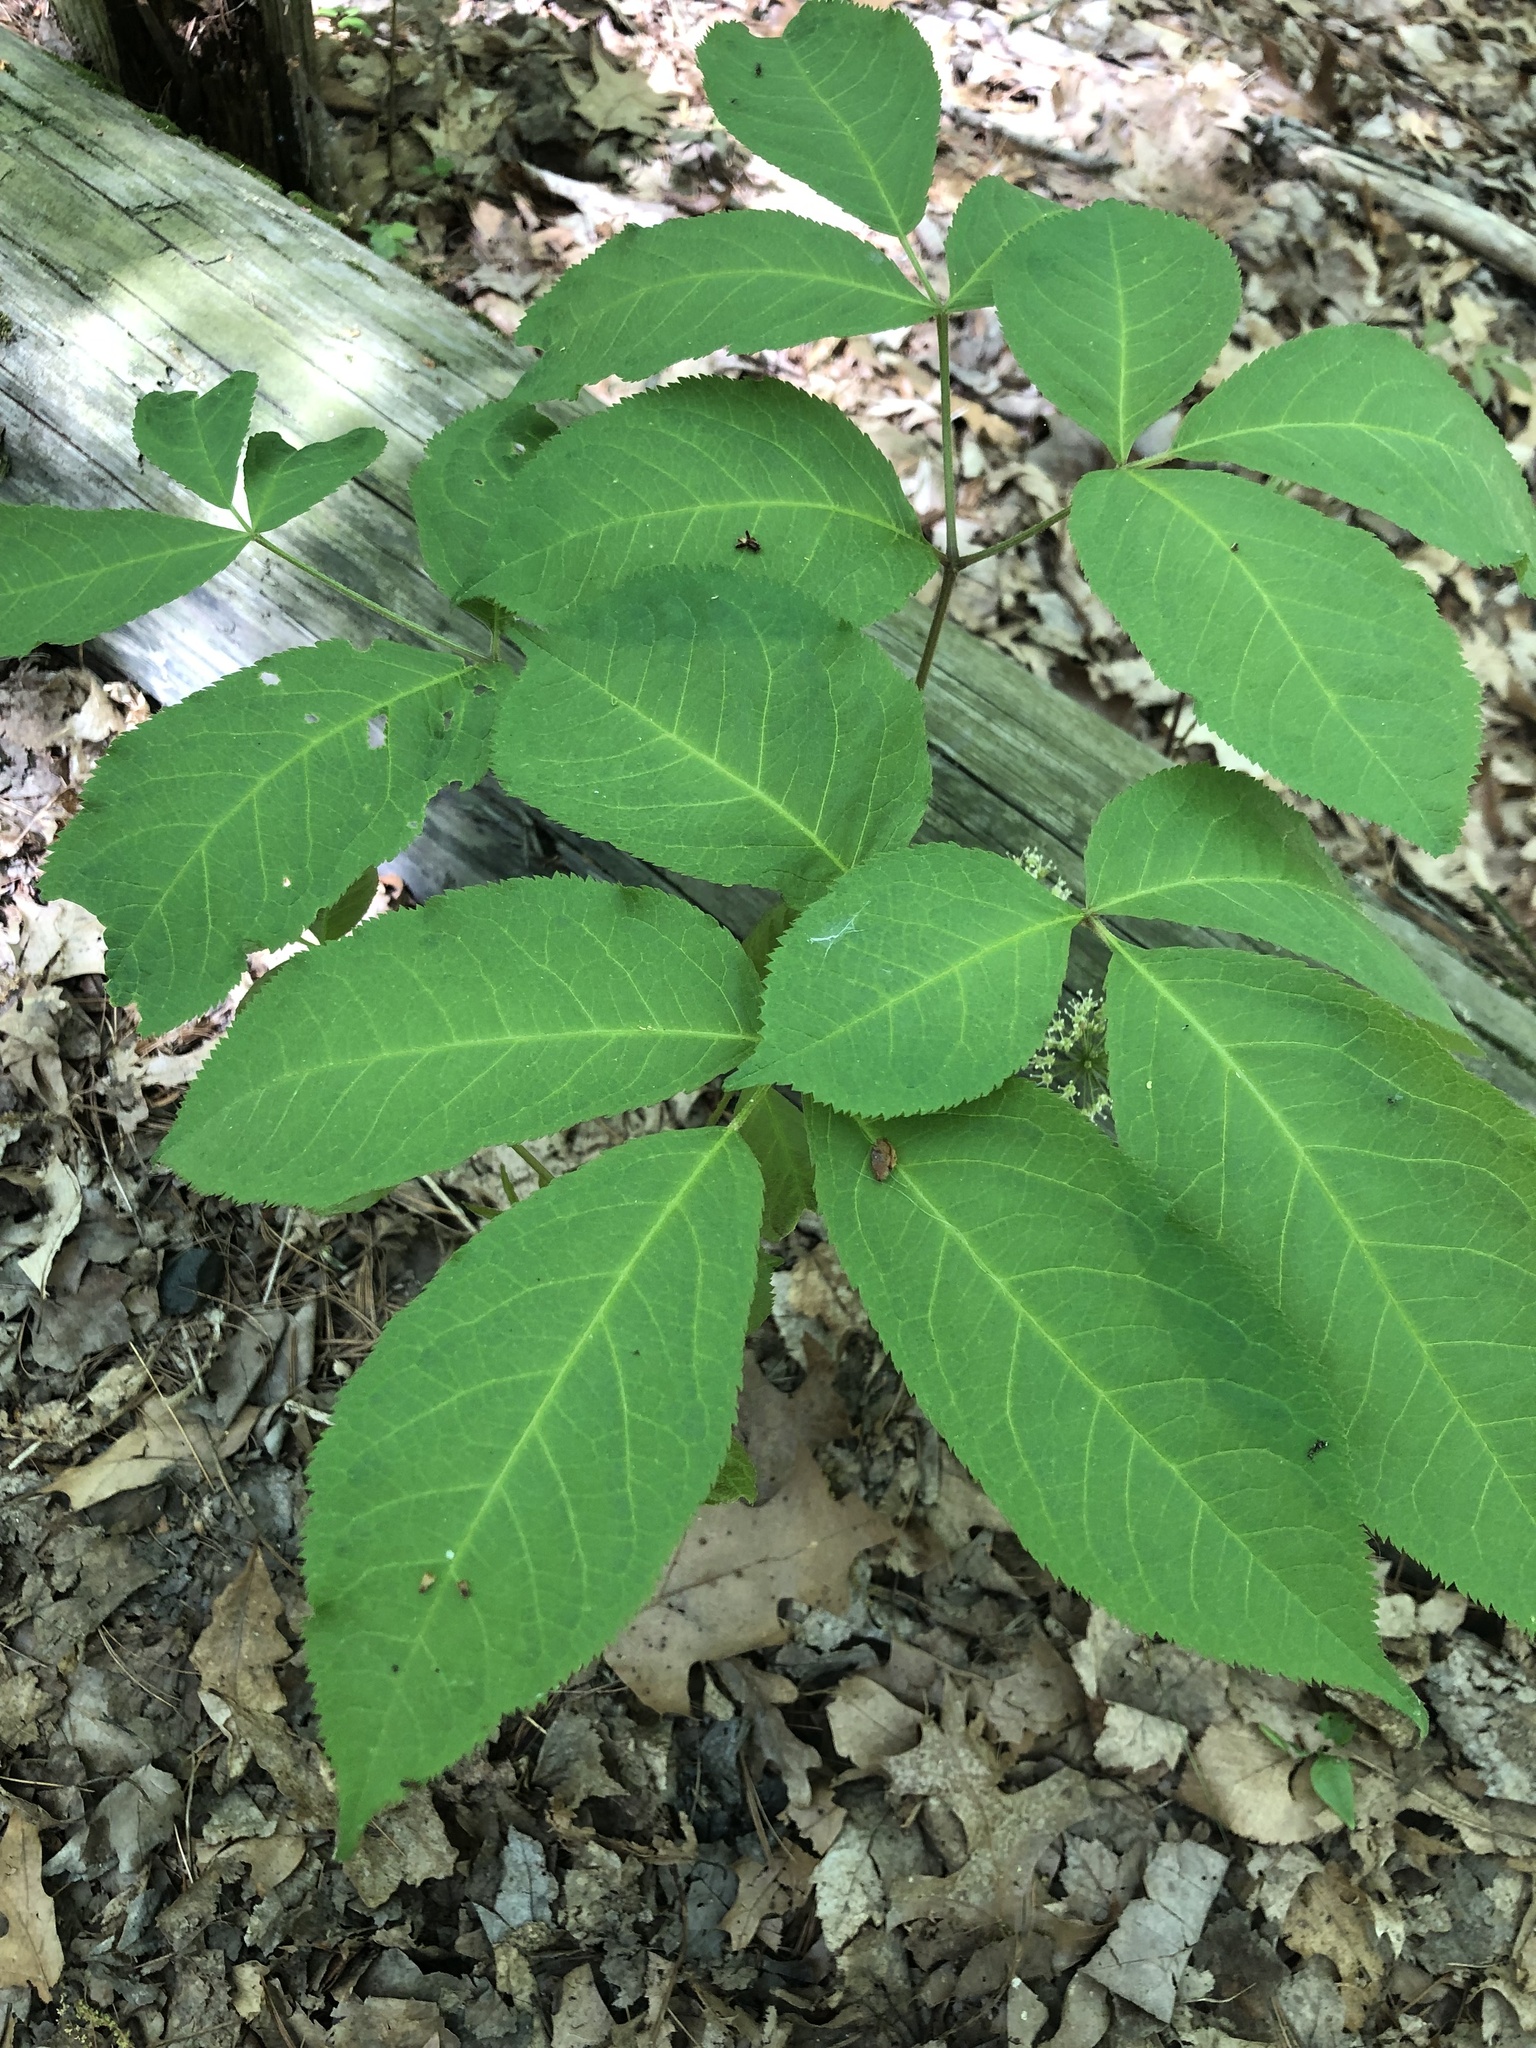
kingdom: Plantae
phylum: Tracheophyta
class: Magnoliopsida
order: Apiales
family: Araliaceae
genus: Aralia
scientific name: Aralia nudicaulis
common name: Wild sarsaparilla
